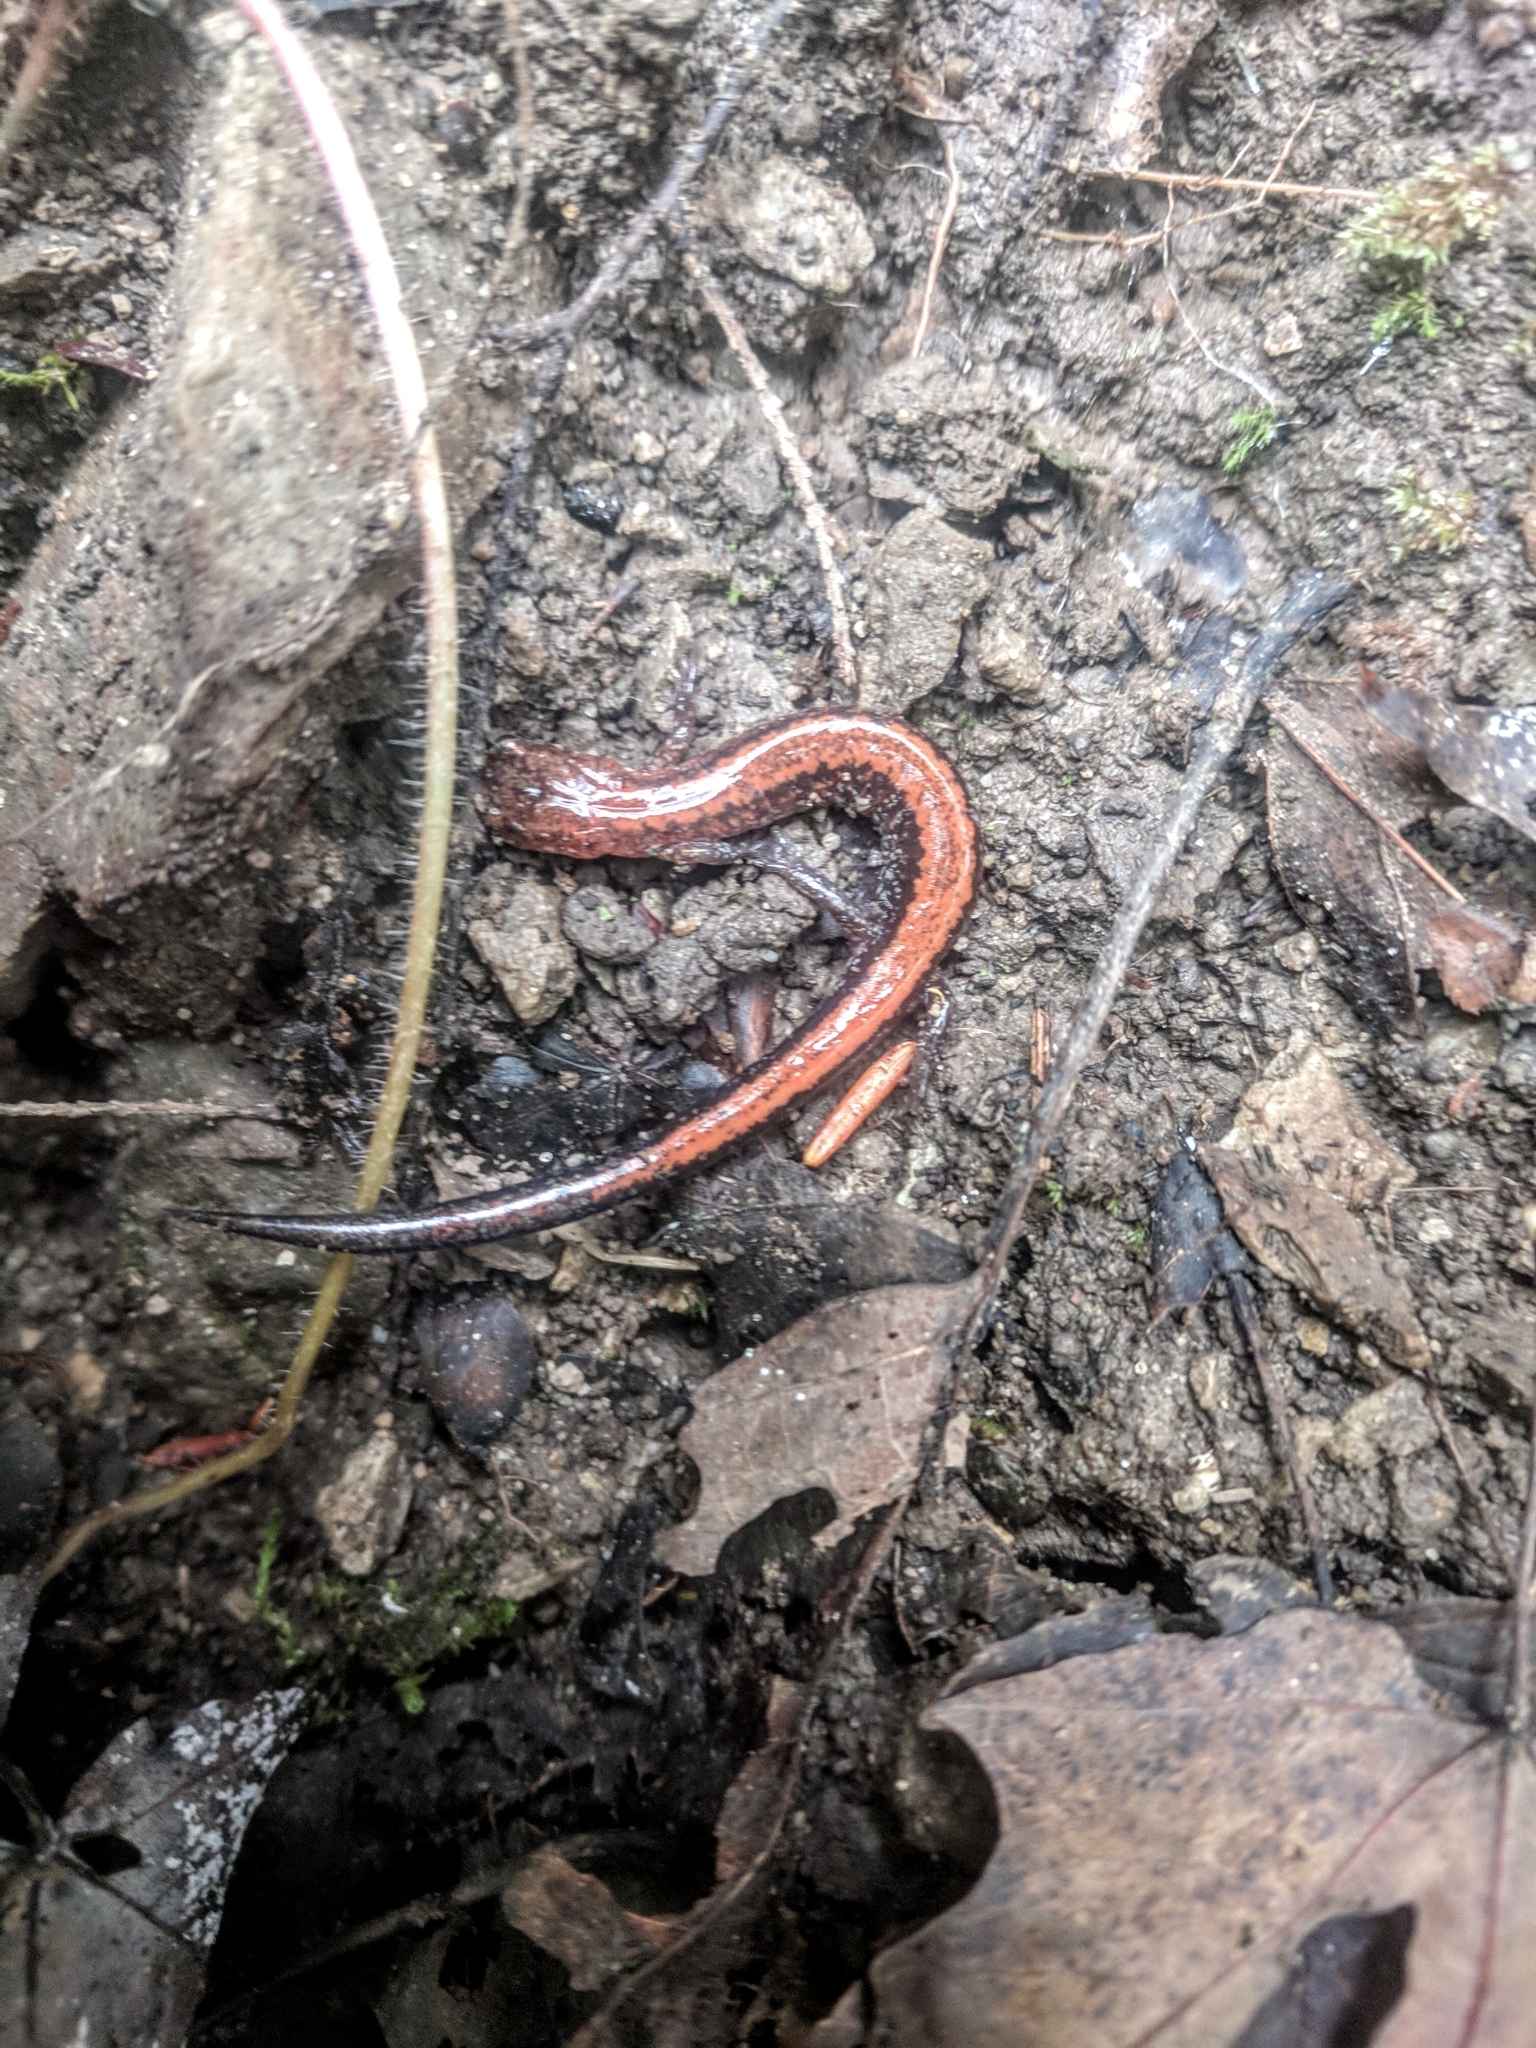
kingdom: Animalia
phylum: Chordata
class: Amphibia
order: Caudata
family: Plethodontidae
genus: Plethodon
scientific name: Plethodon cinereus
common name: Redback salamander
